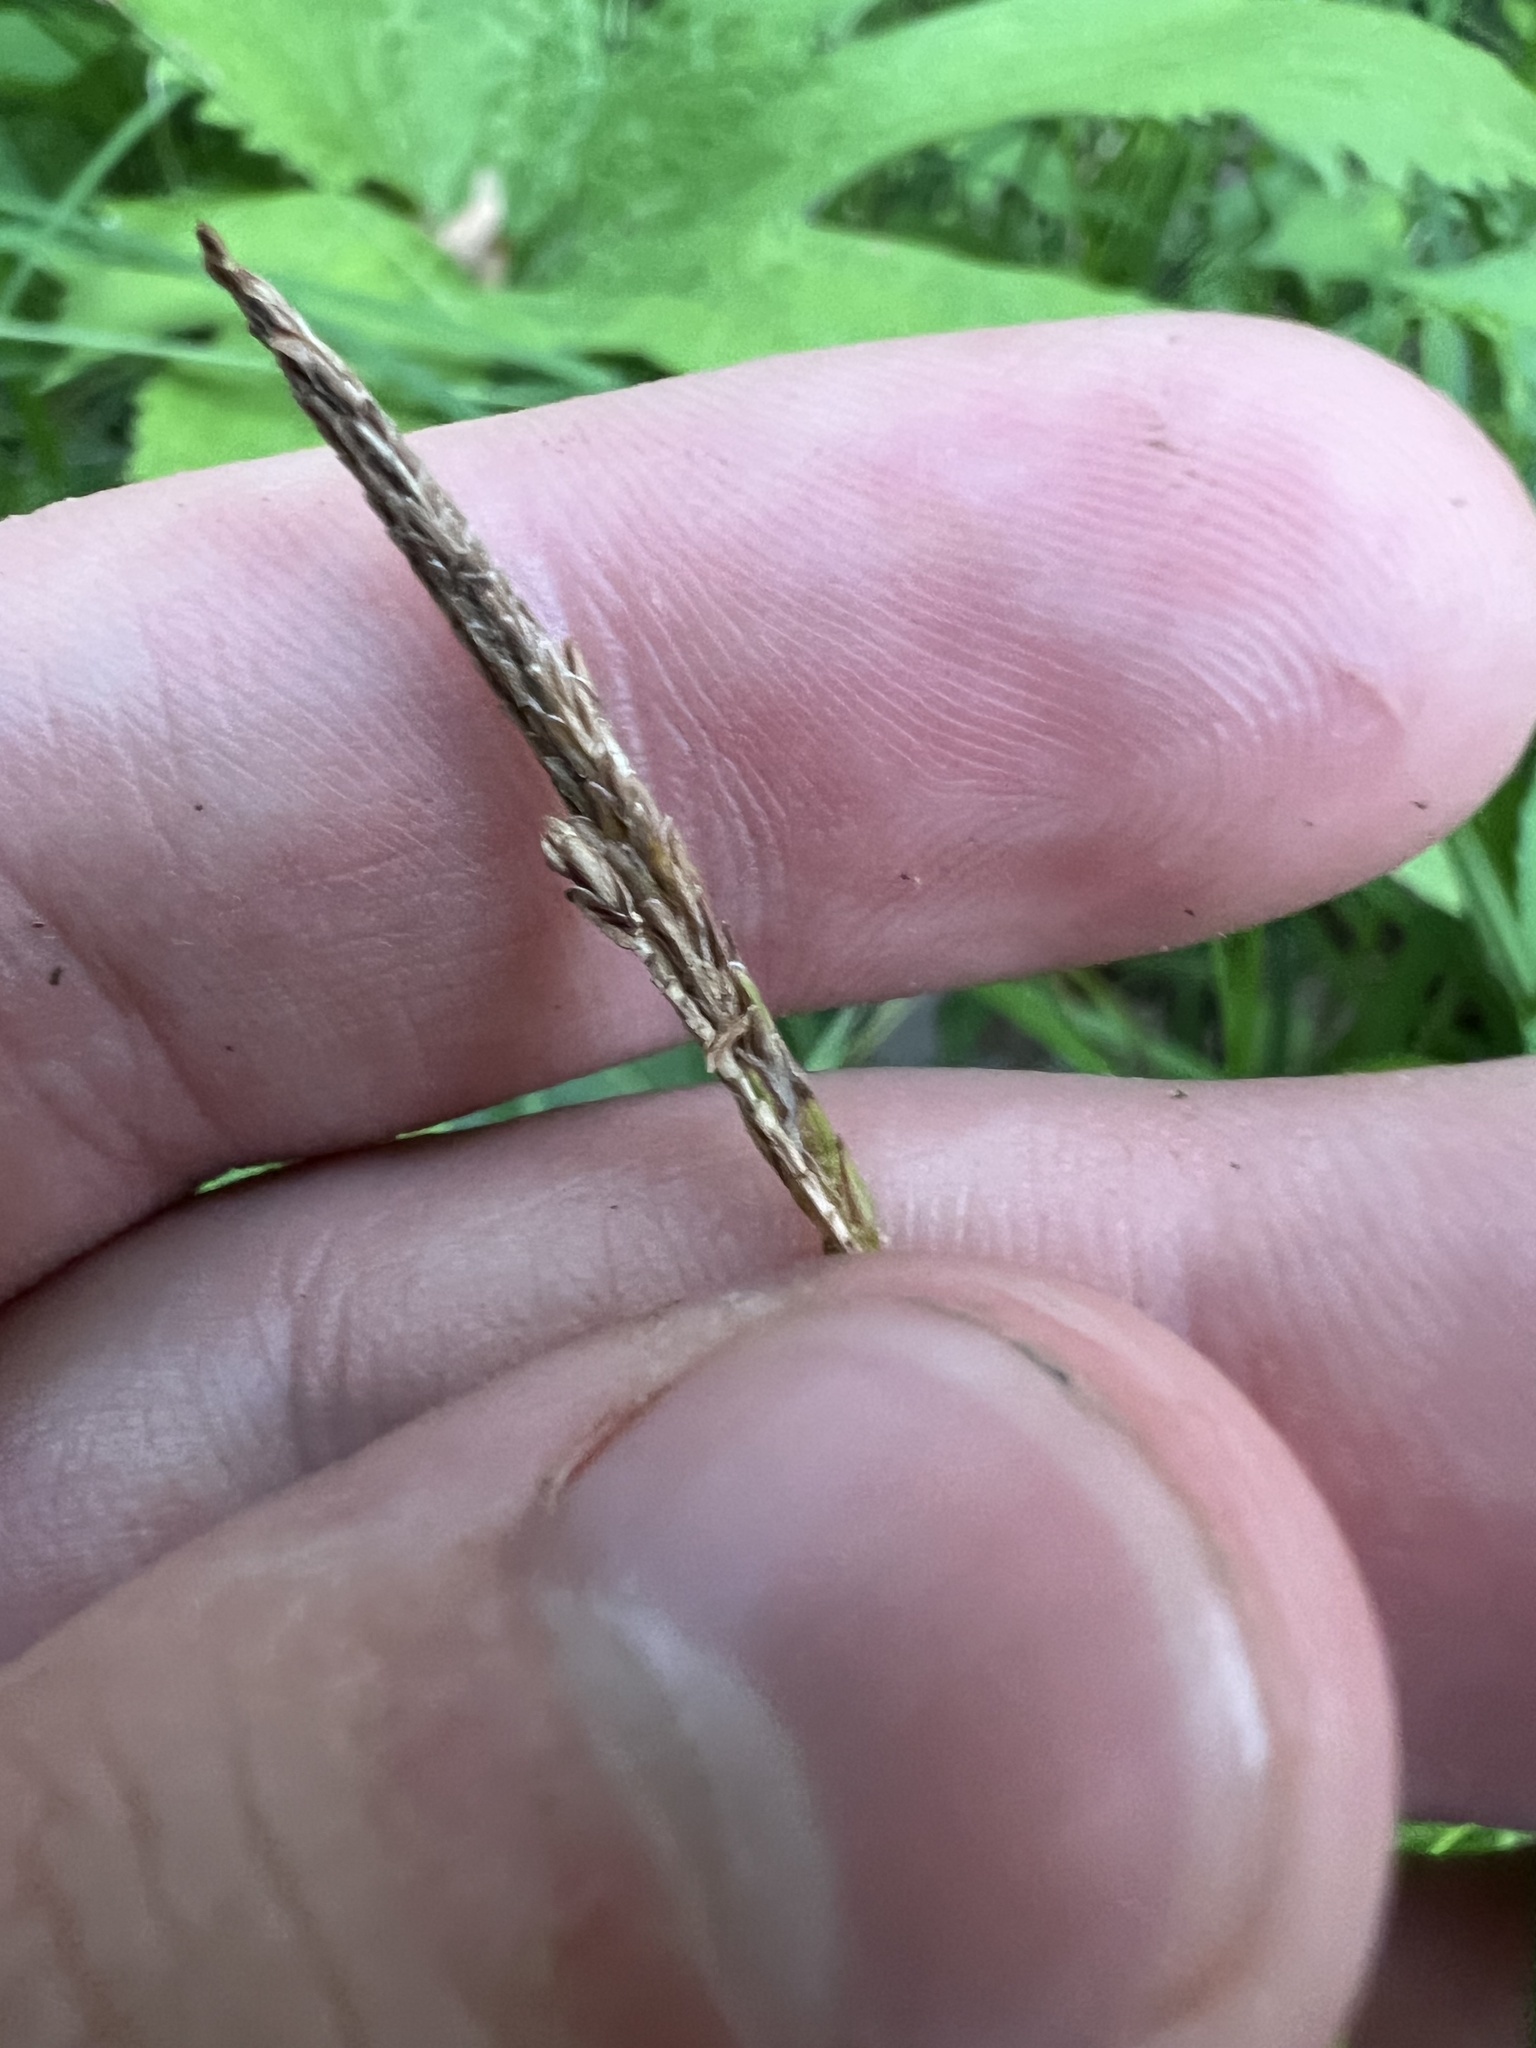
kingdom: Plantae
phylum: Tracheophyta
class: Liliopsida
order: Poales
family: Cyperaceae
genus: Carex
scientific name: Carex torta
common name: Twisted sedge
